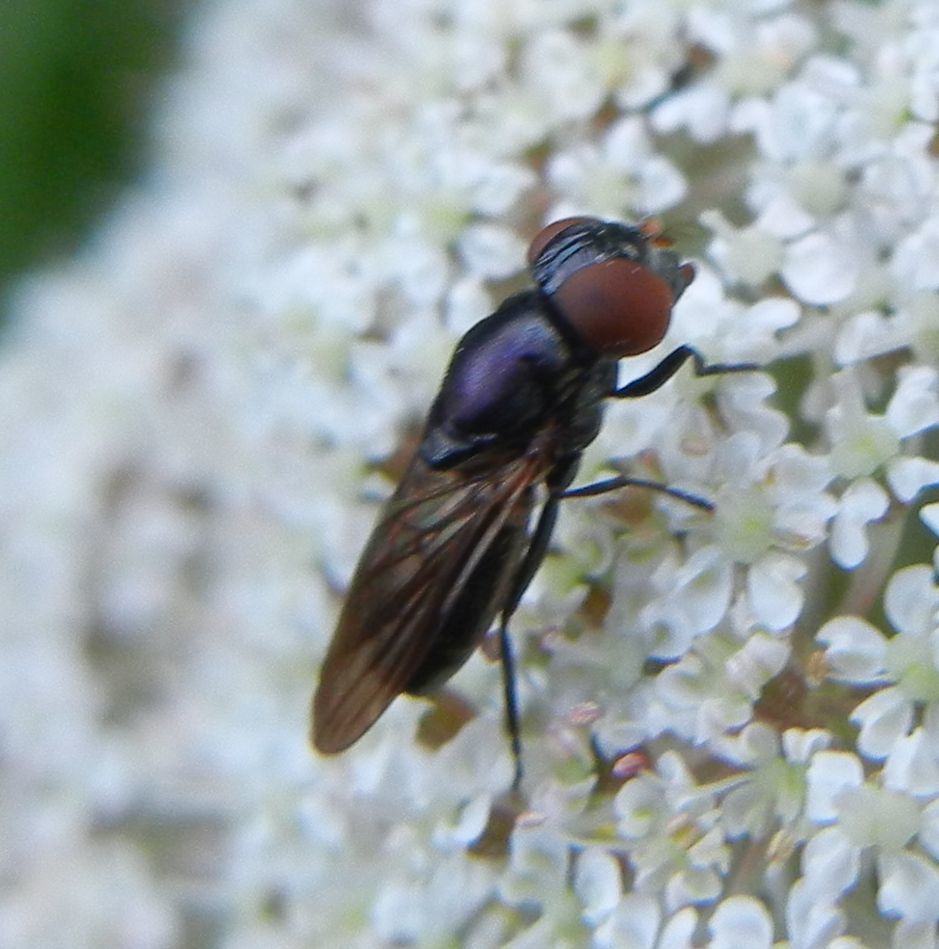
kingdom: Animalia
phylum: Arthropoda
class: Insecta
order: Diptera
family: Syrphidae
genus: Chrysogaster
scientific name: Chrysogaster solstitialis
